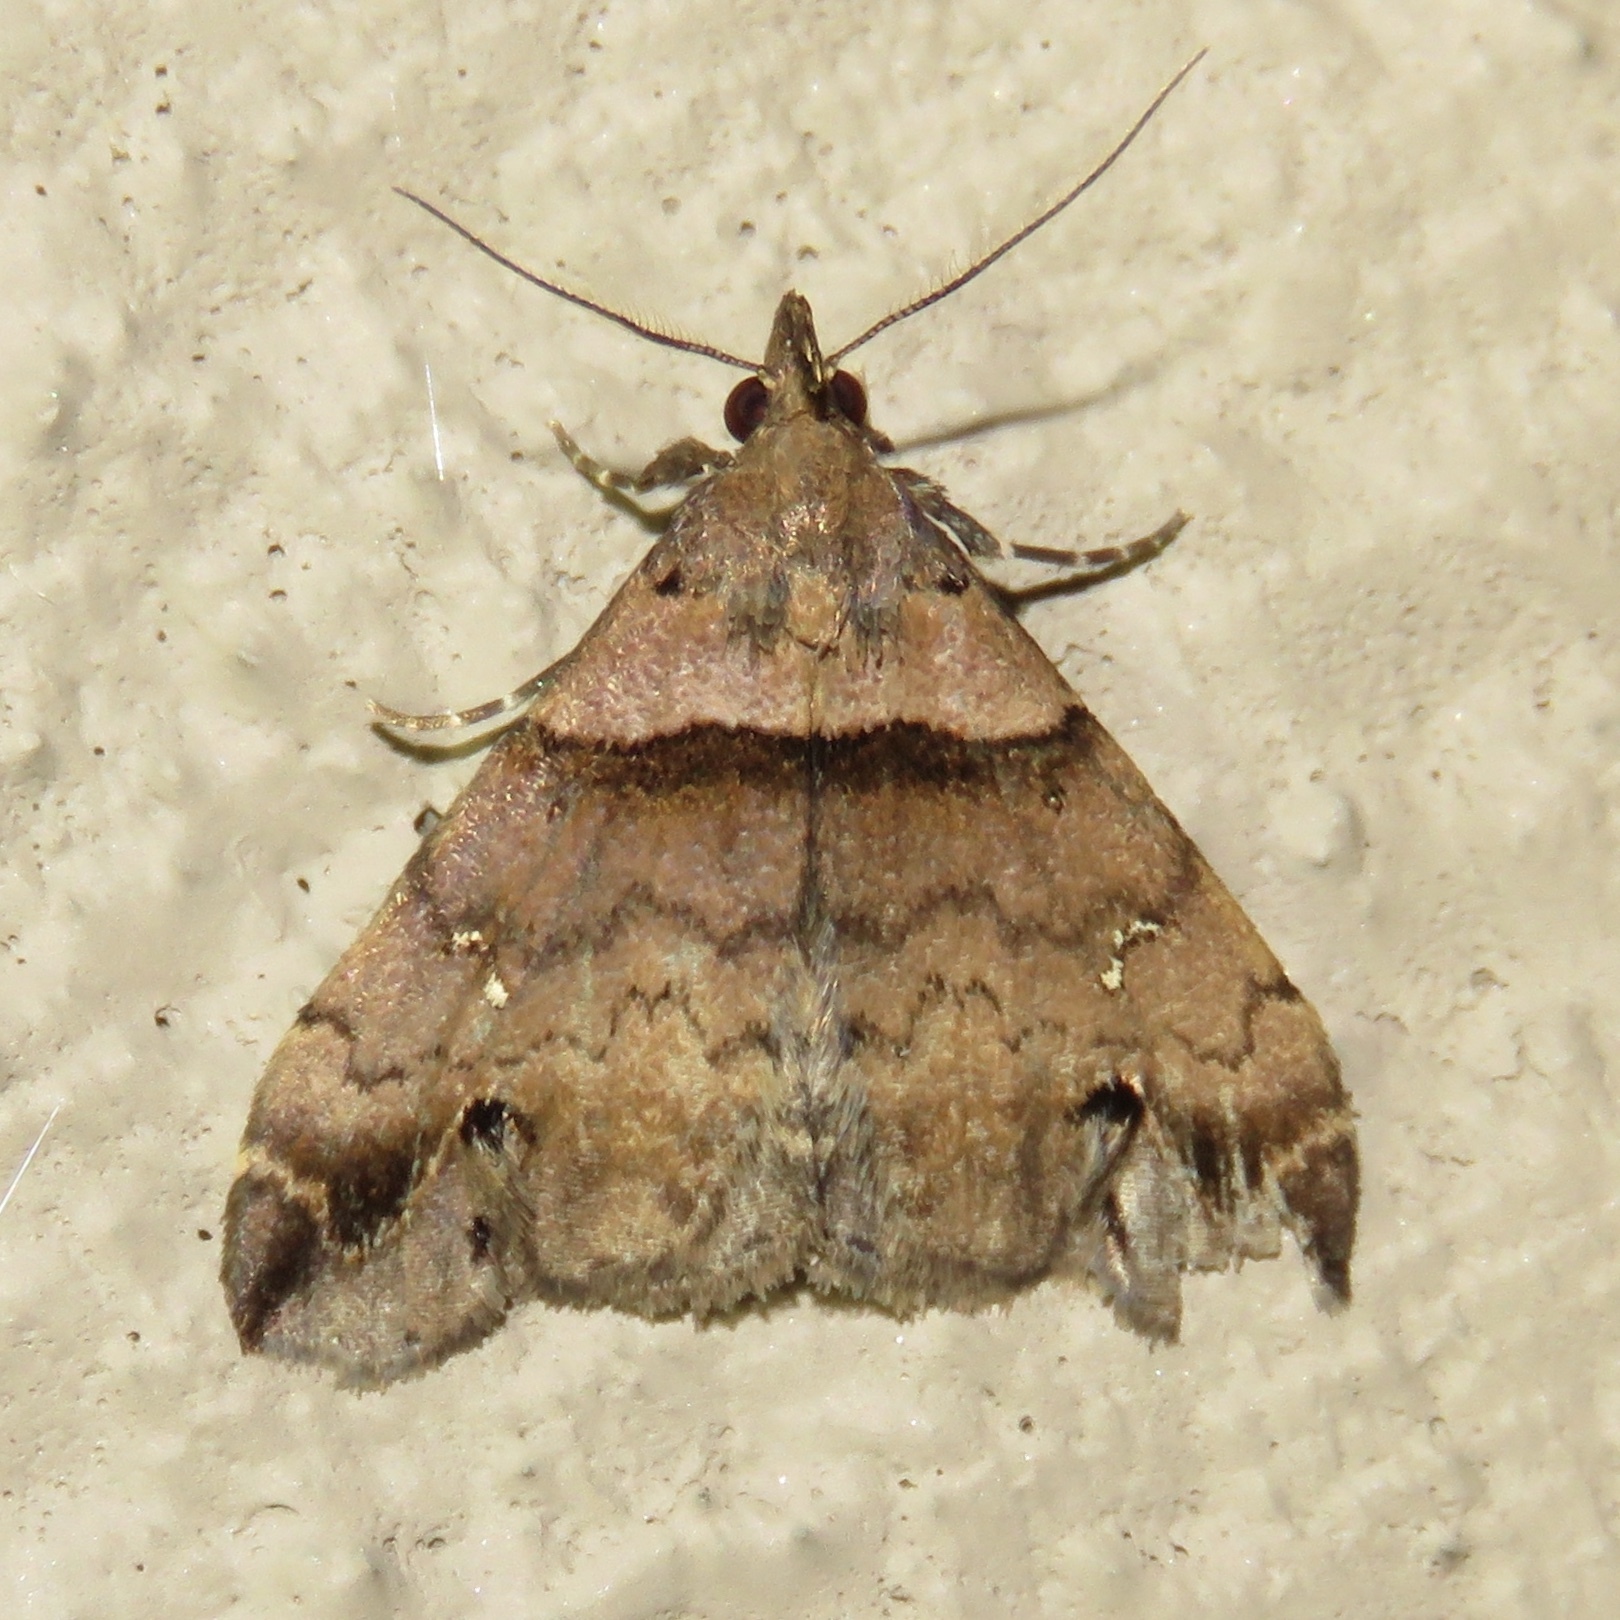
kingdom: Animalia
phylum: Arthropoda
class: Insecta
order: Lepidoptera
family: Erebidae
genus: Lascoria
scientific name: Lascoria ambigualis
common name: Ambiguous moth
